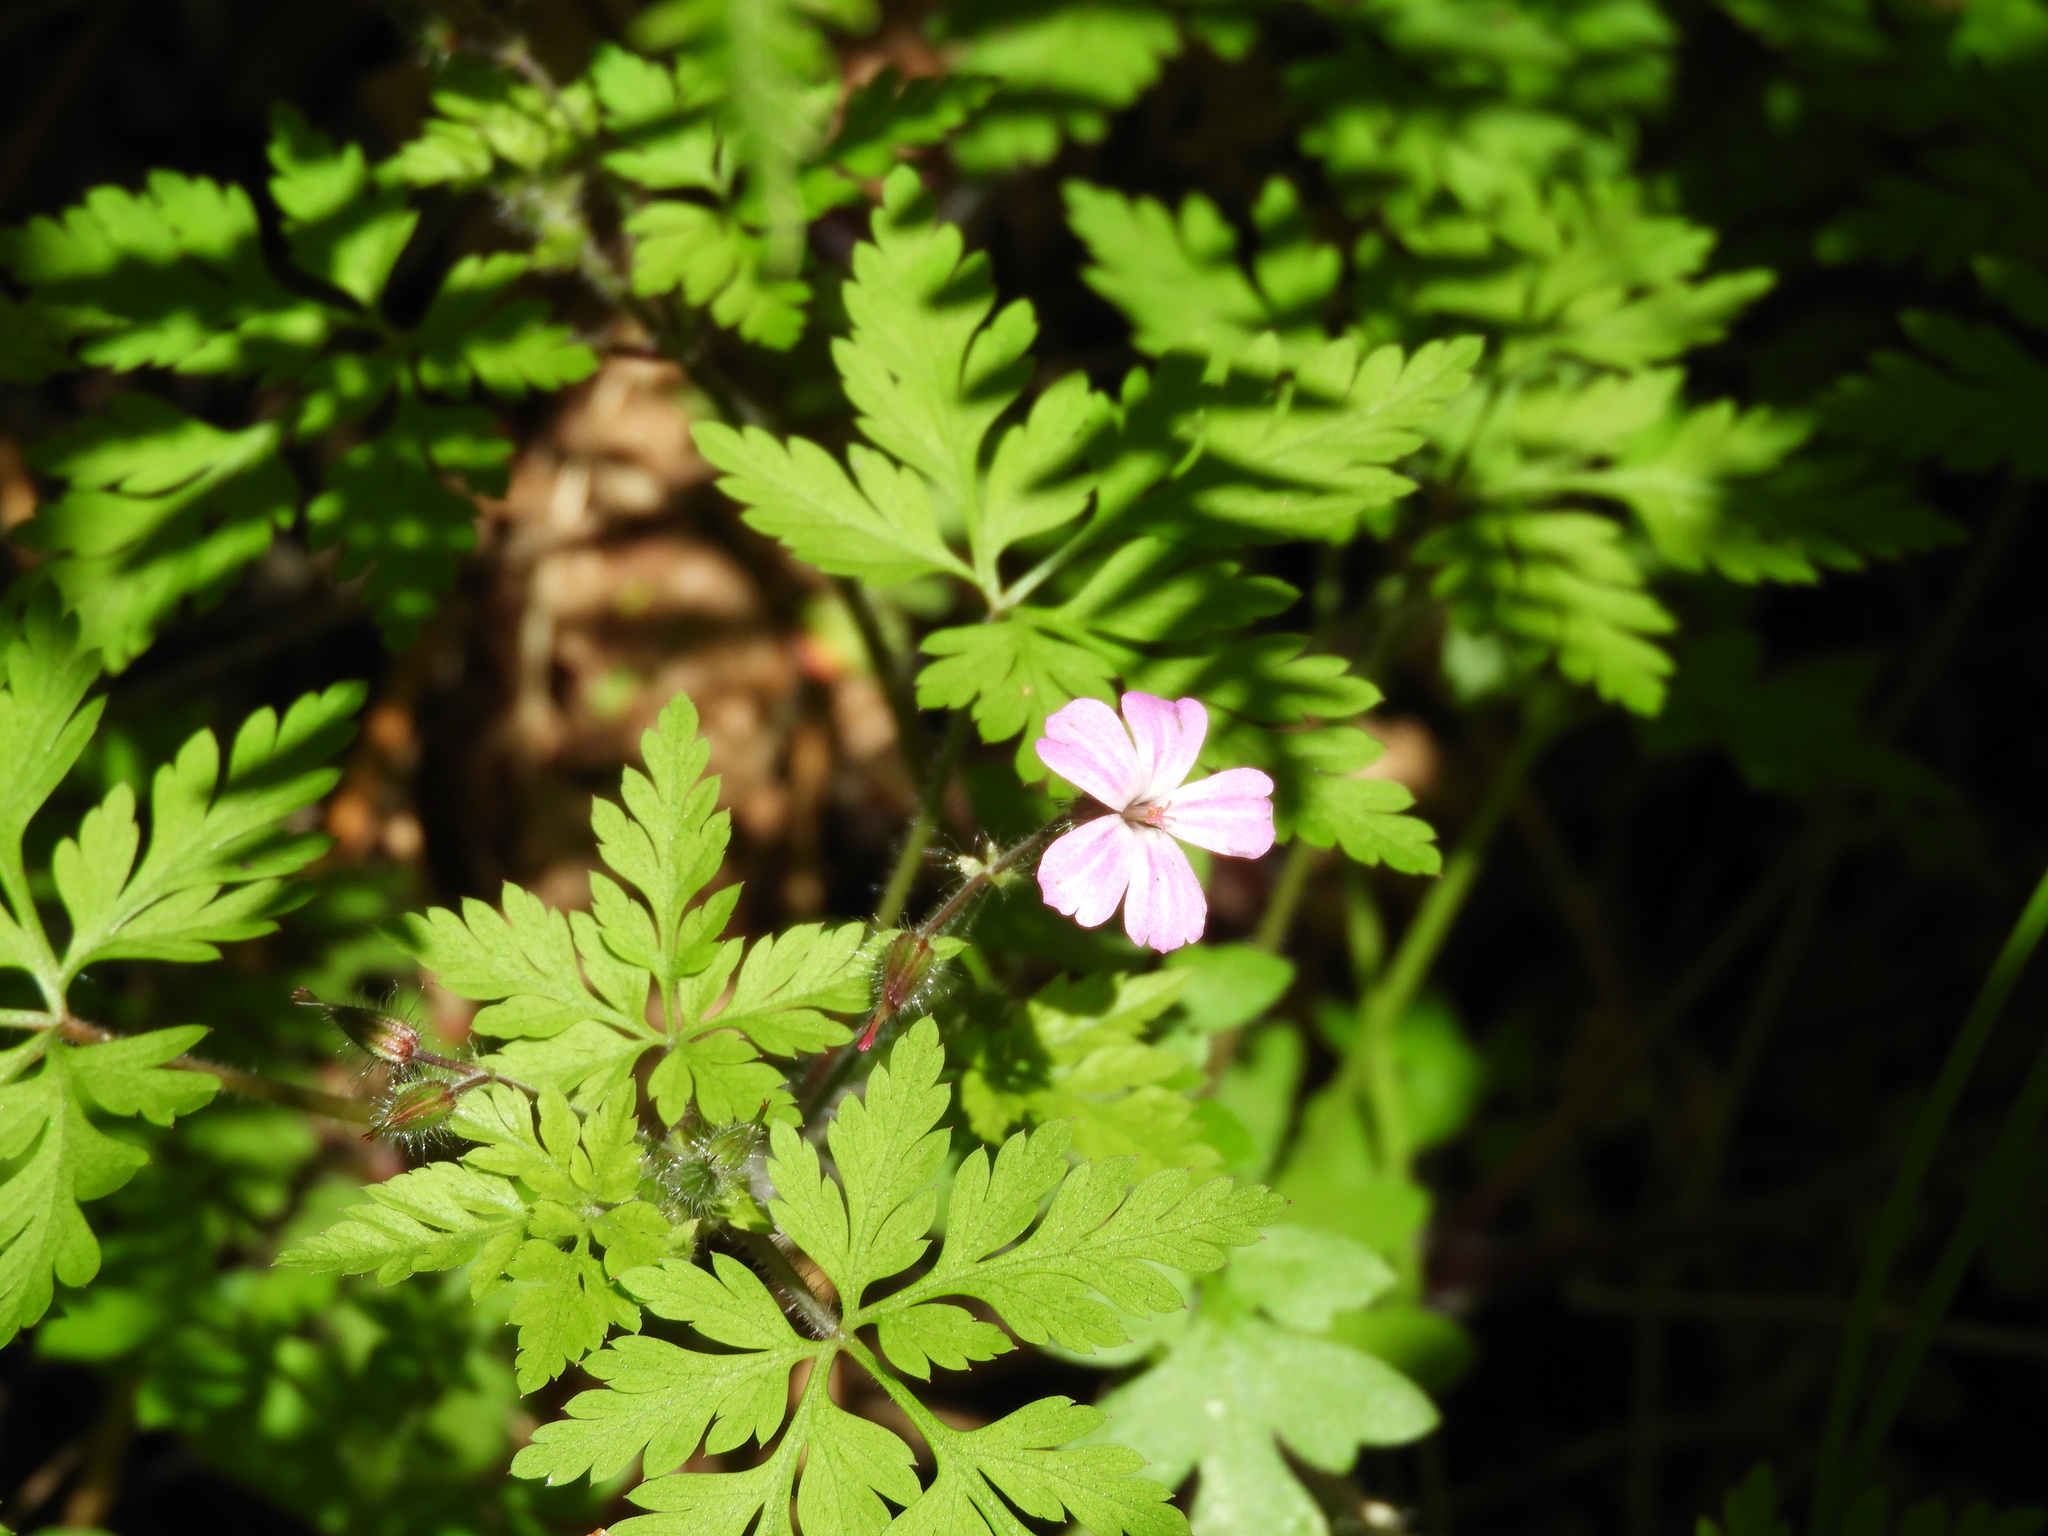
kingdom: Plantae
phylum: Tracheophyta
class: Magnoliopsida
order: Geraniales
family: Geraniaceae
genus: Geranium
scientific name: Geranium robertianum
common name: Herb-robert
